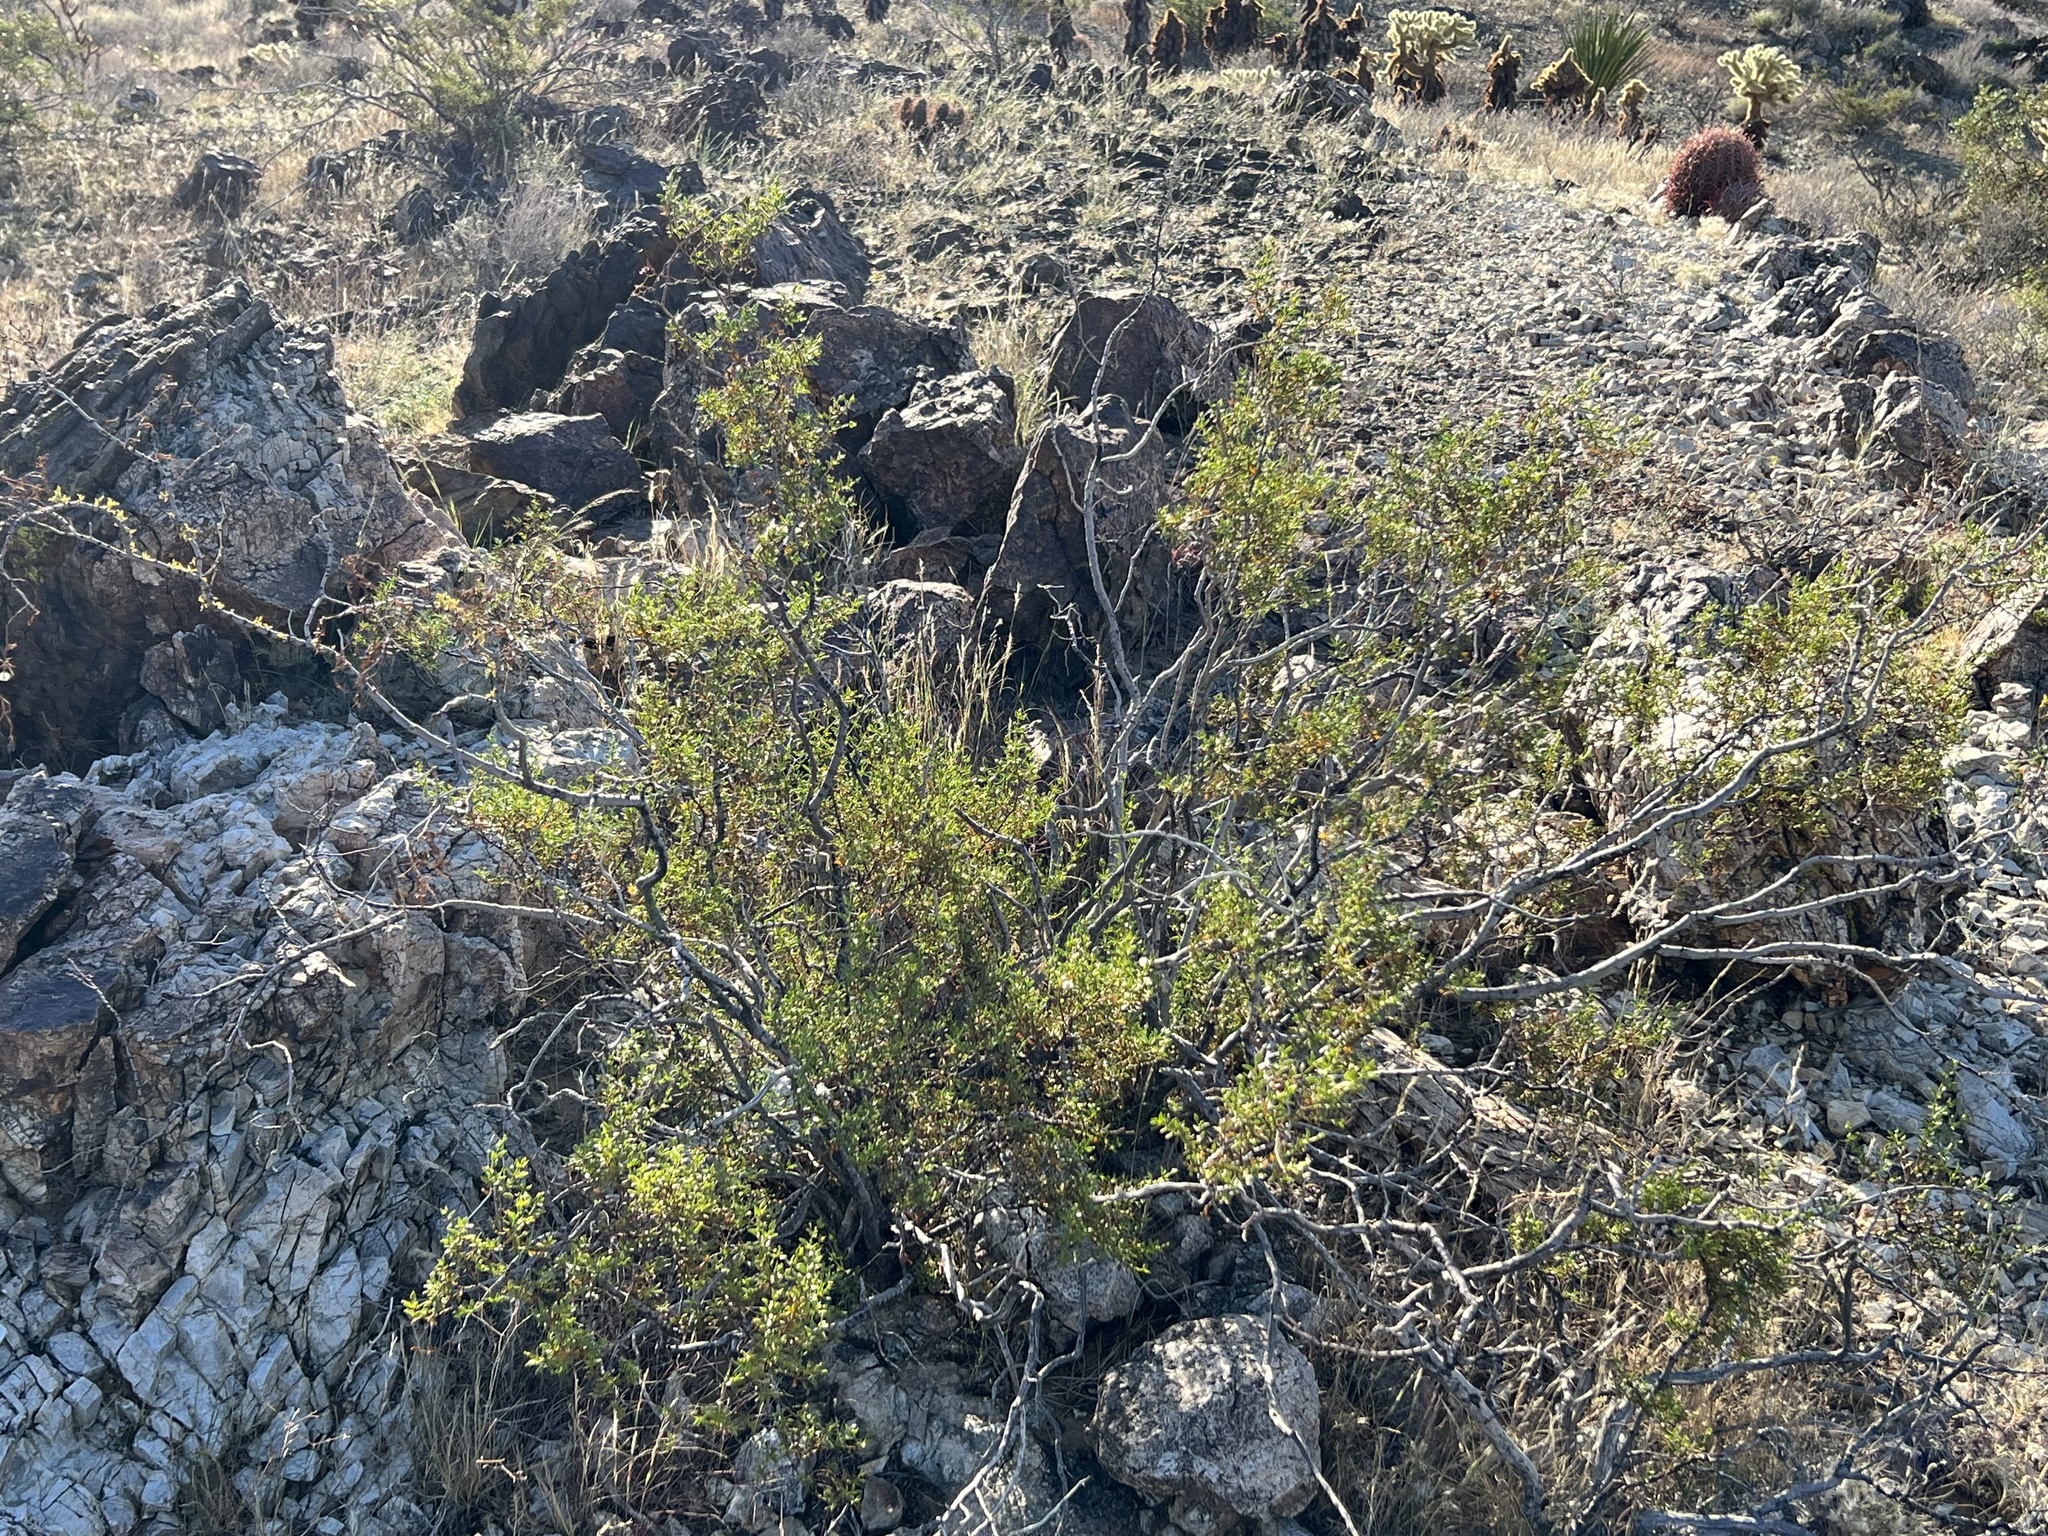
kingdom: Plantae
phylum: Tracheophyta
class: Magnoliopsida
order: Zygophyllales
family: Zygophyllaceae
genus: Larrea
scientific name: Larrea tridentata
